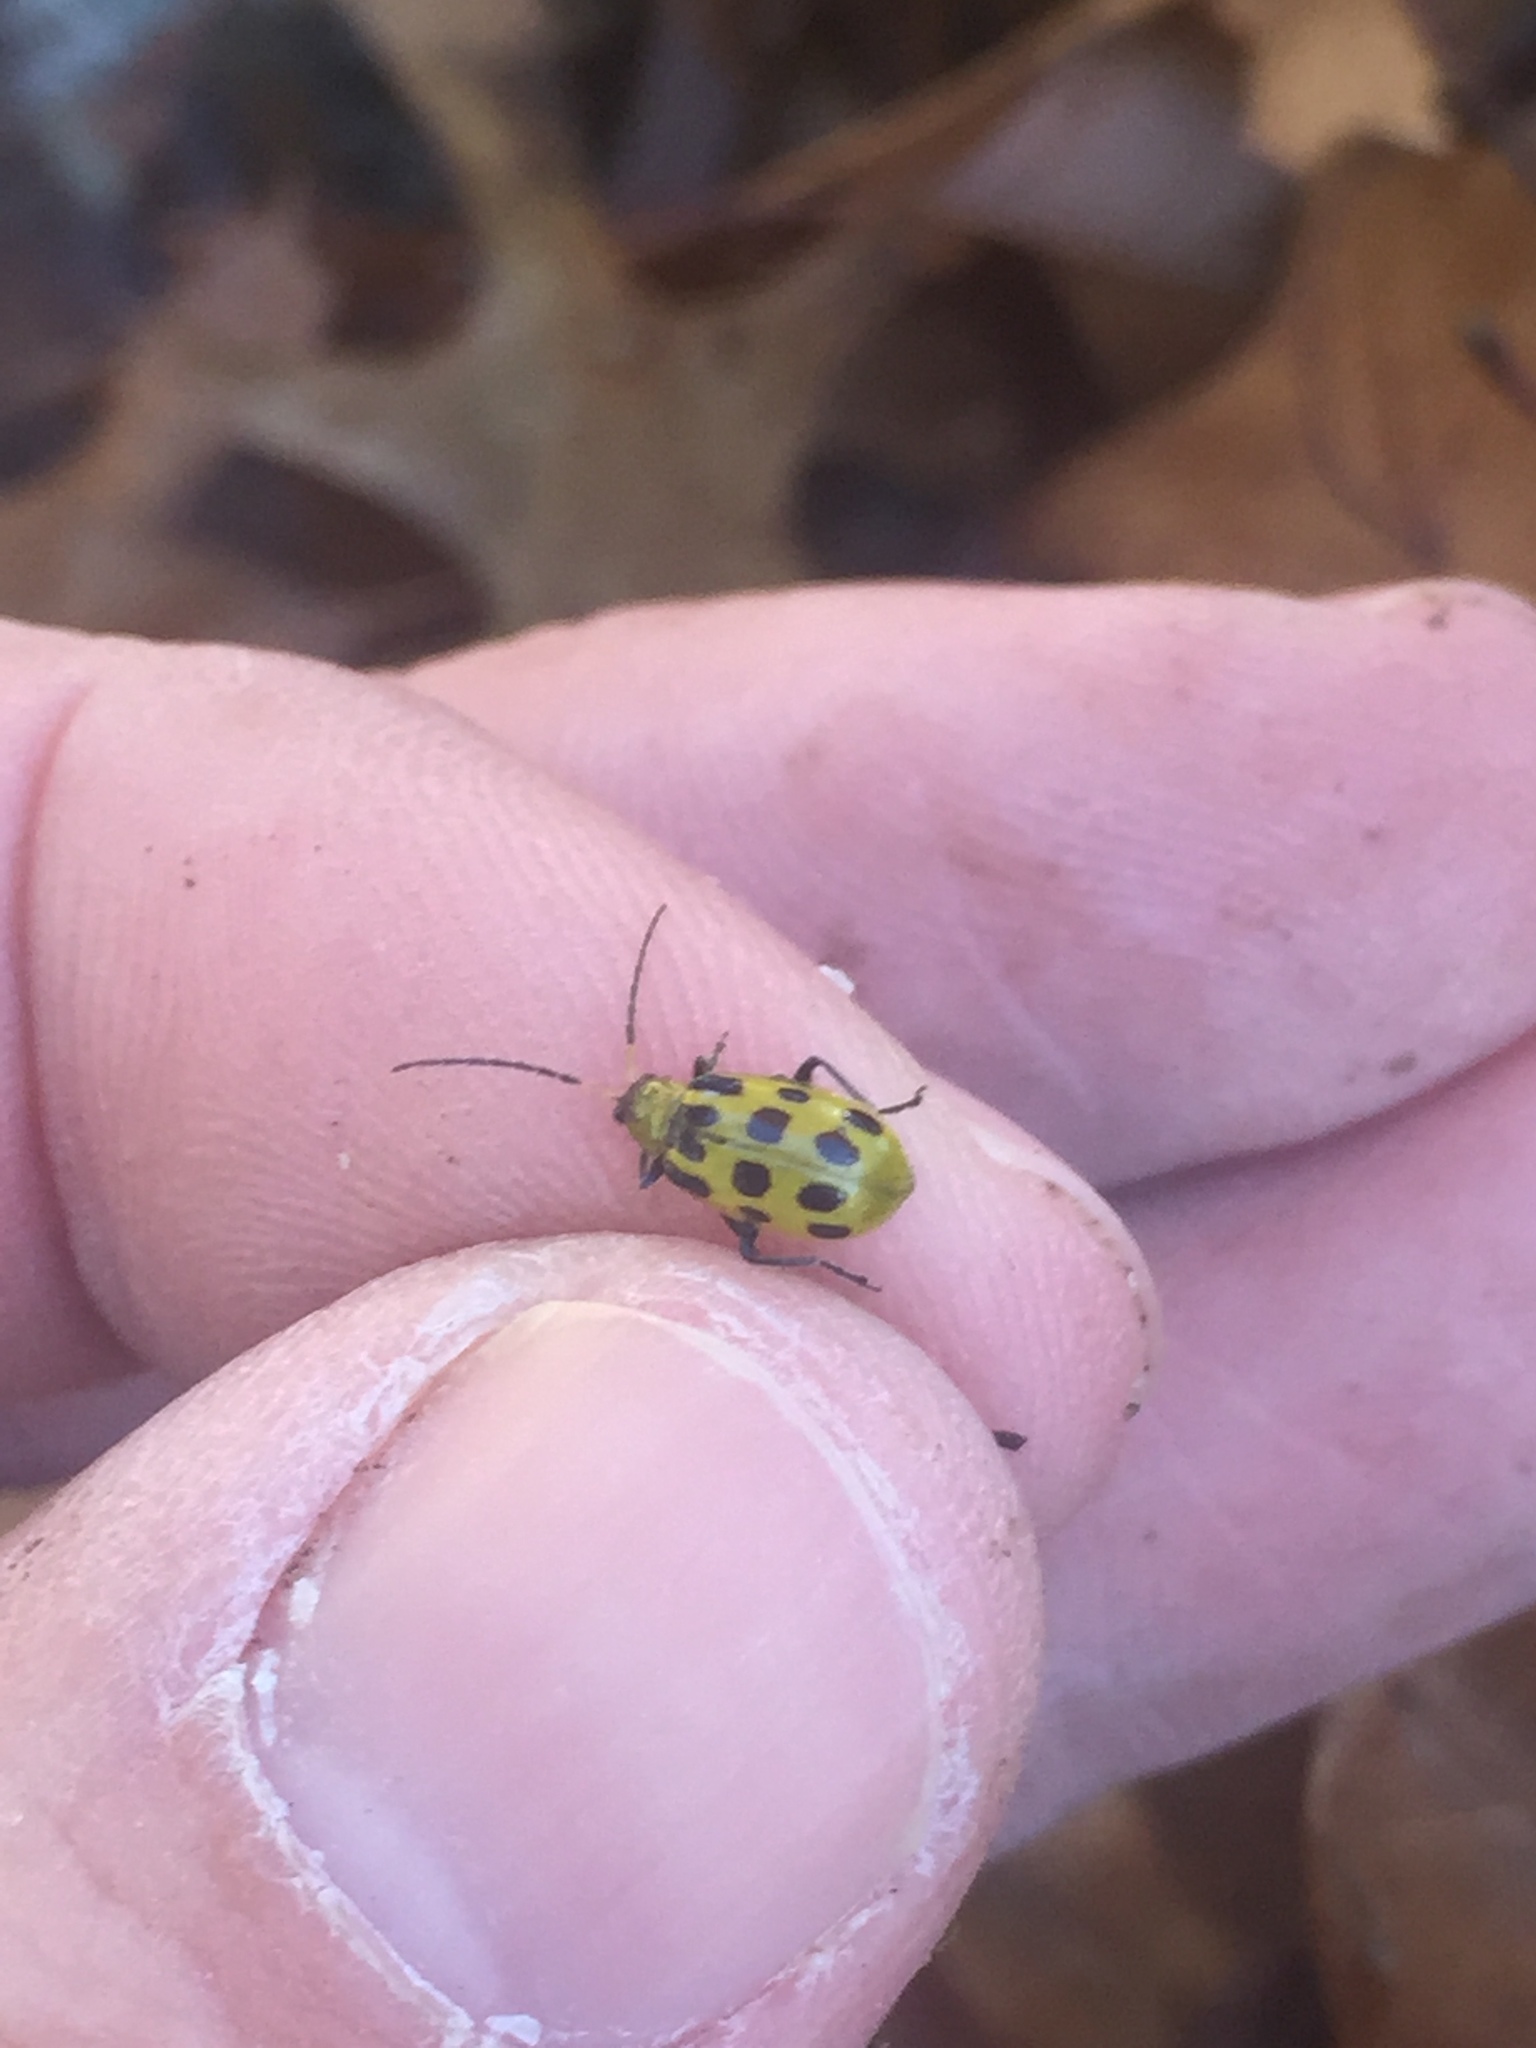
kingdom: Animalia
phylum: Arthropoda
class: Insecta
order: Coleoptera
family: Chrysomelidae
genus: Diabrotica
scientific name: Diabrotica undecimpunctata
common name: Spotted cucumber beetle
